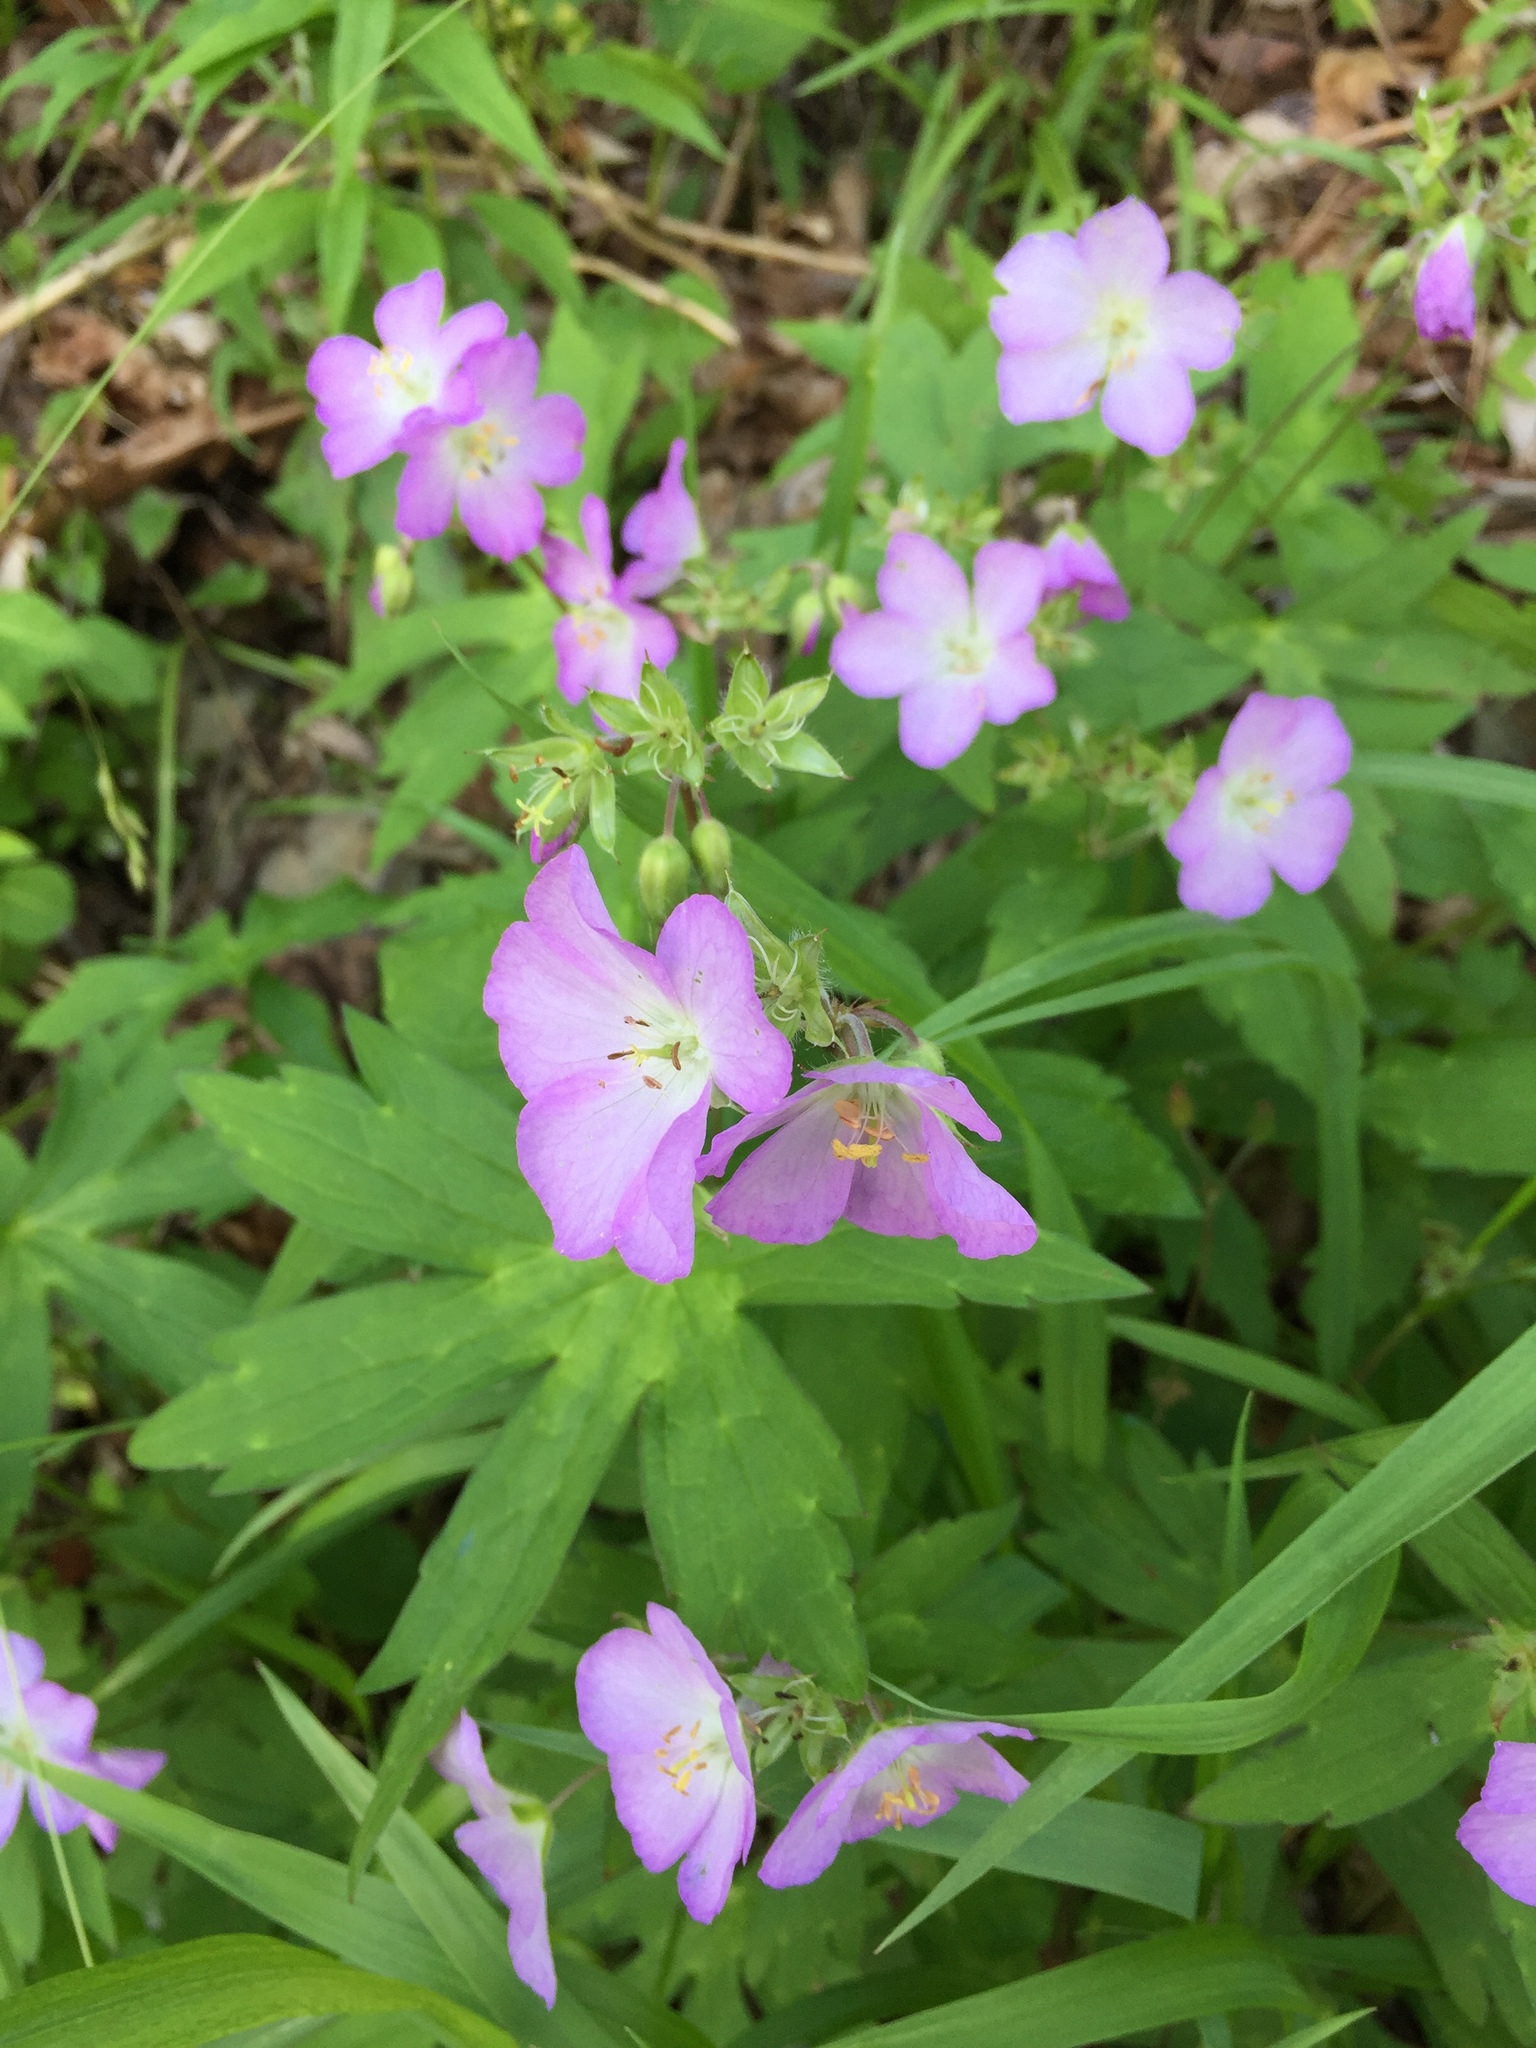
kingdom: Plantae
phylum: Tracheophyta
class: Magnoliopsida
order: Geraniales
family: Geraniaceae
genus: Geranium
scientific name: Geranium maculatum
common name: Spotted geranium
